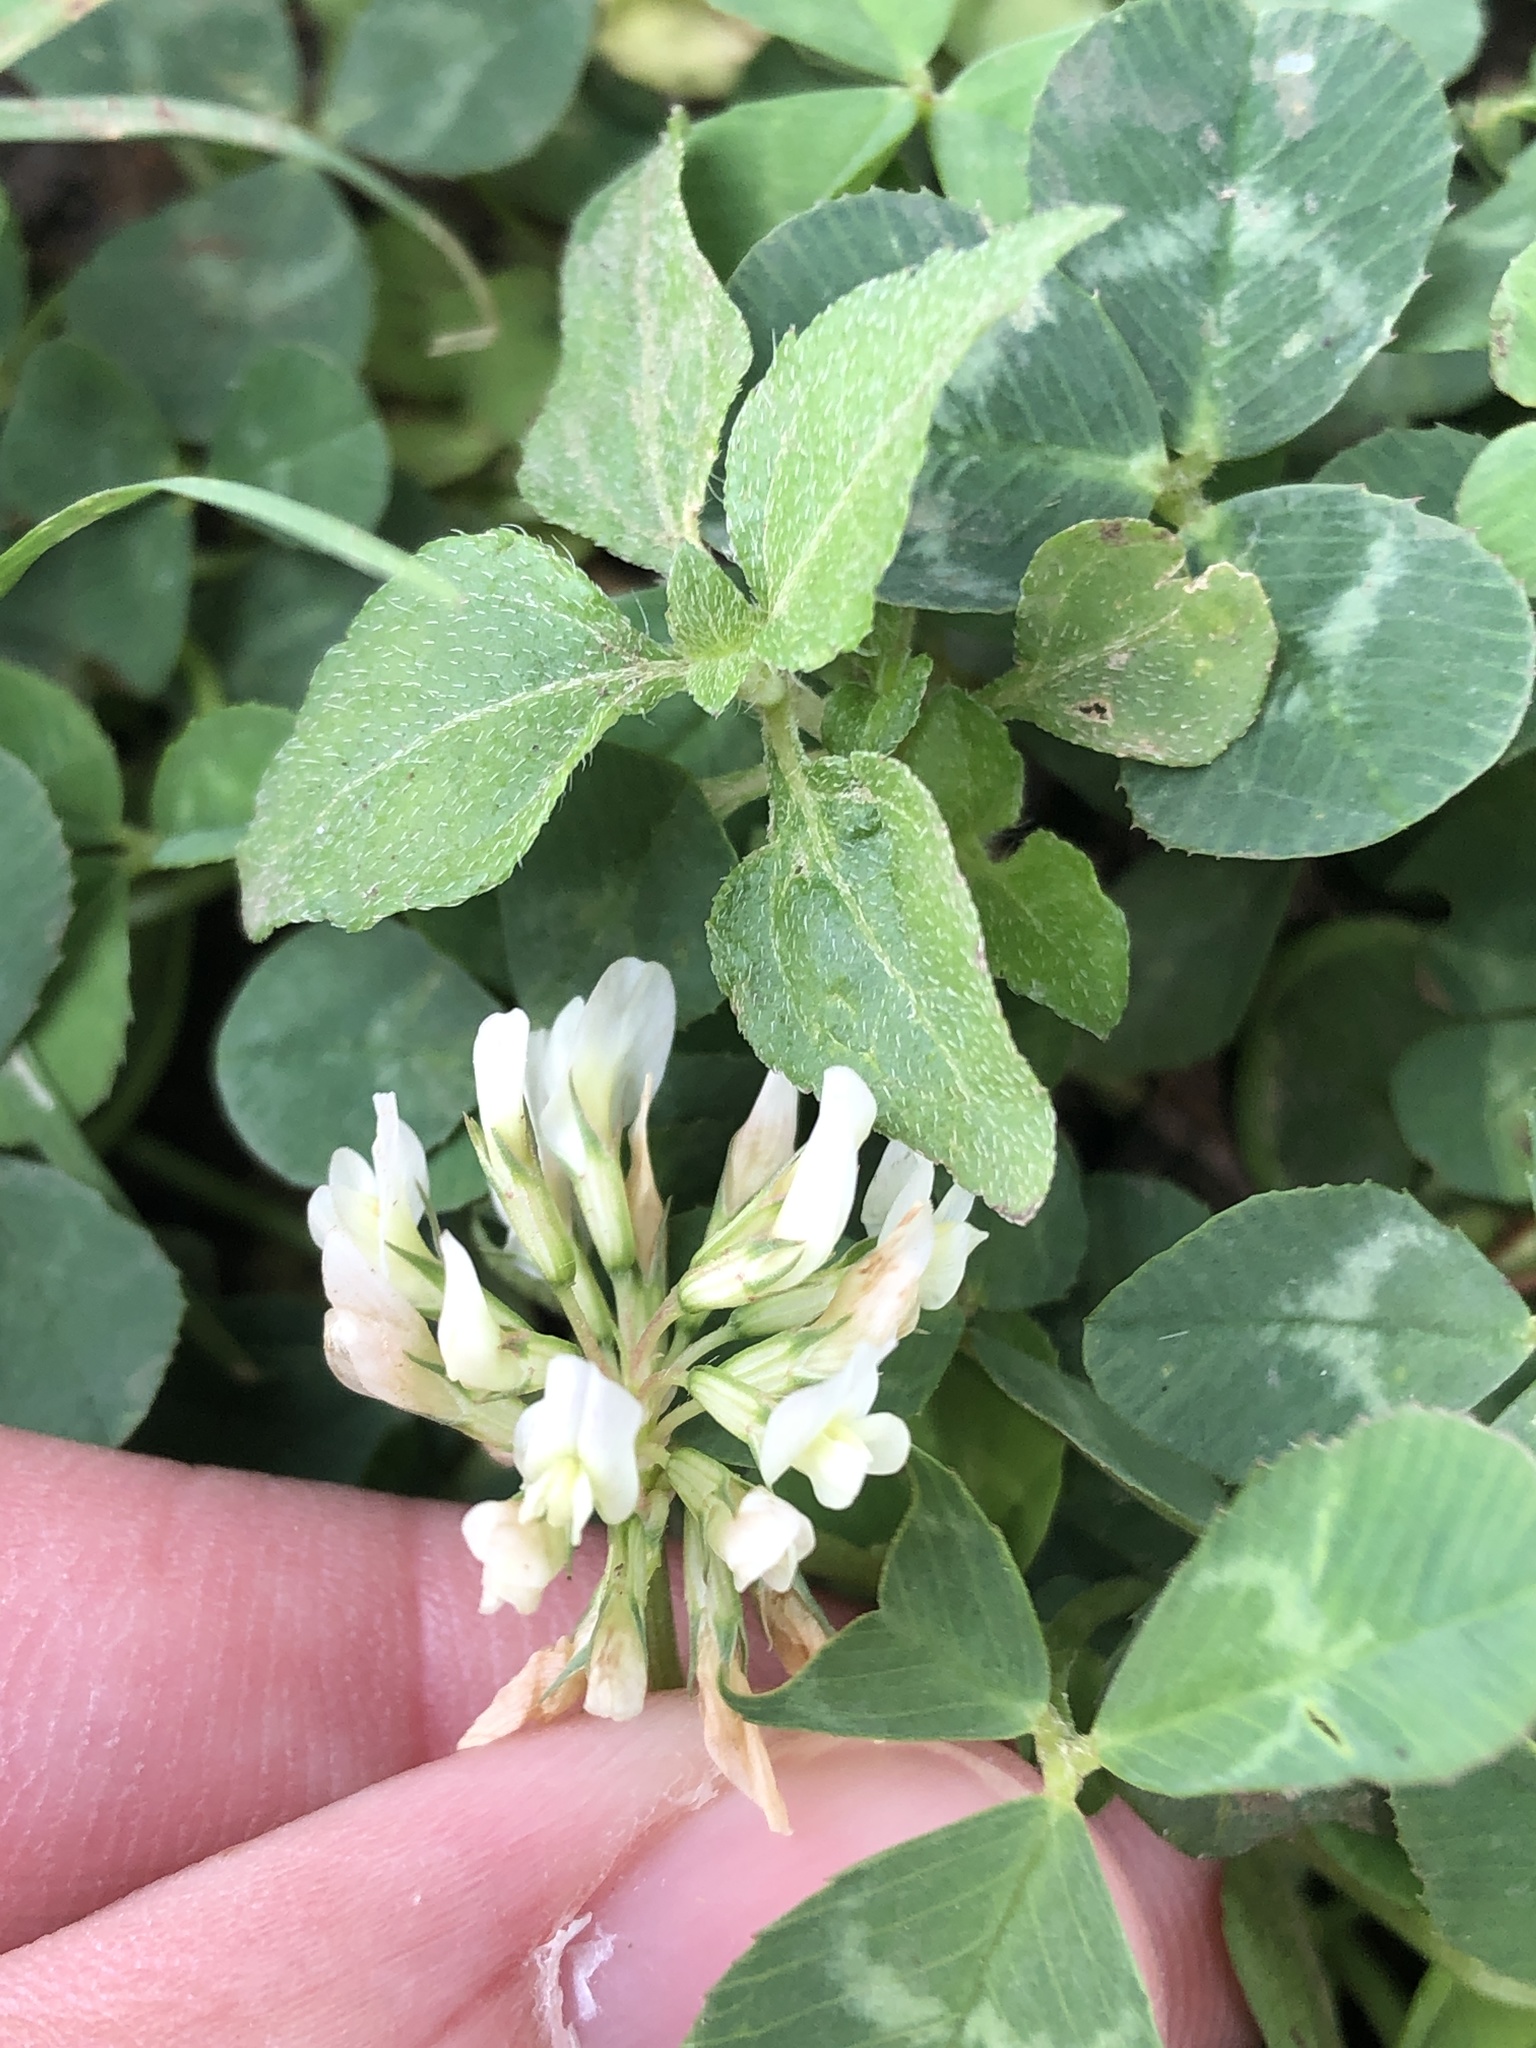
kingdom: Plantae
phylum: Tracheophyta
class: Magnoliopsida
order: Fabales
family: Fabaceae
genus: Trifolium
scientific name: Trifolium repens
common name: White clover
